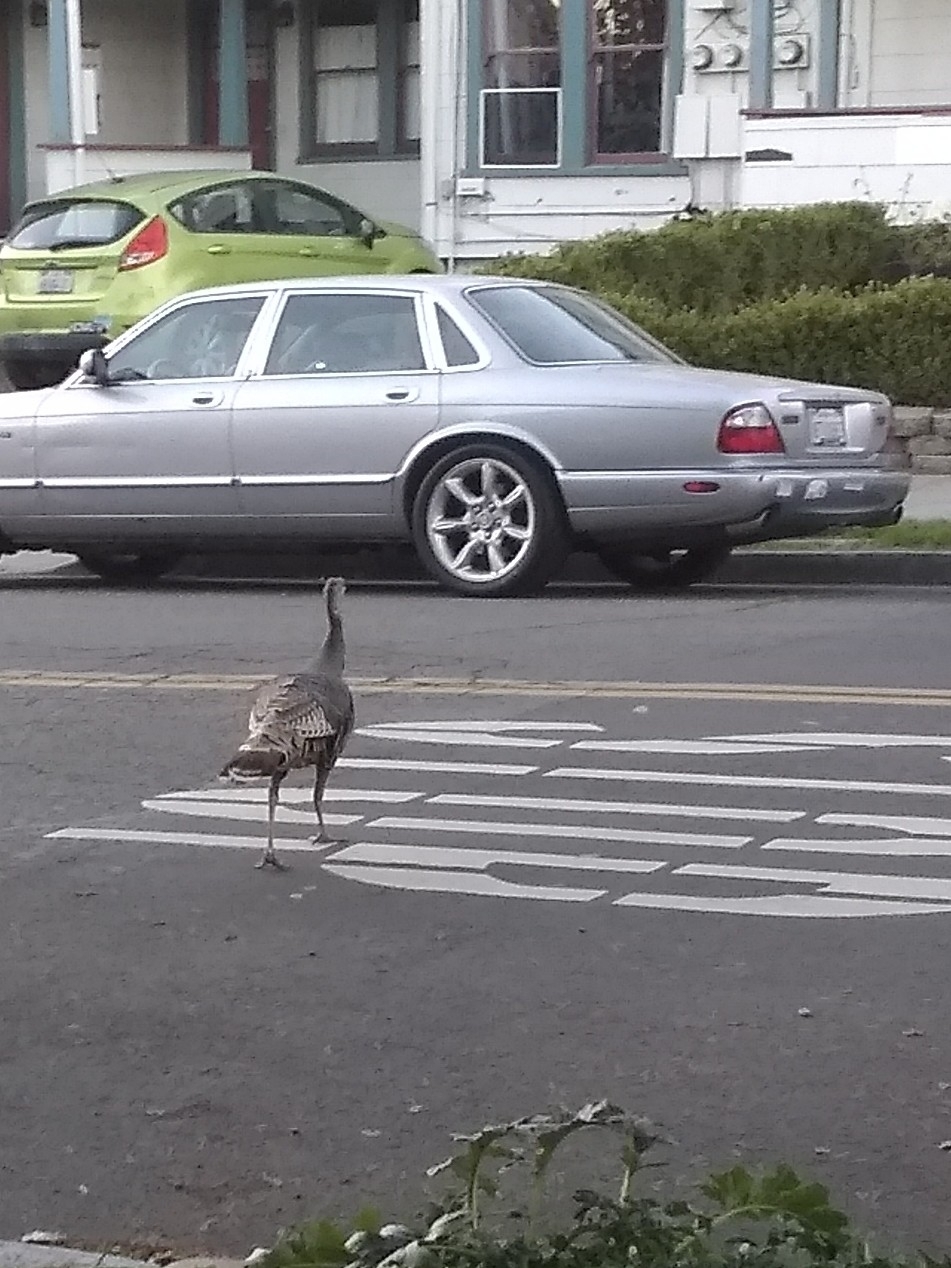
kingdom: Animalia
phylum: Chordata
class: Aves
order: Galliformes
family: Phasianidae
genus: Meleagris
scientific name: Meleagris gallopavo
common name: Wild turkey
